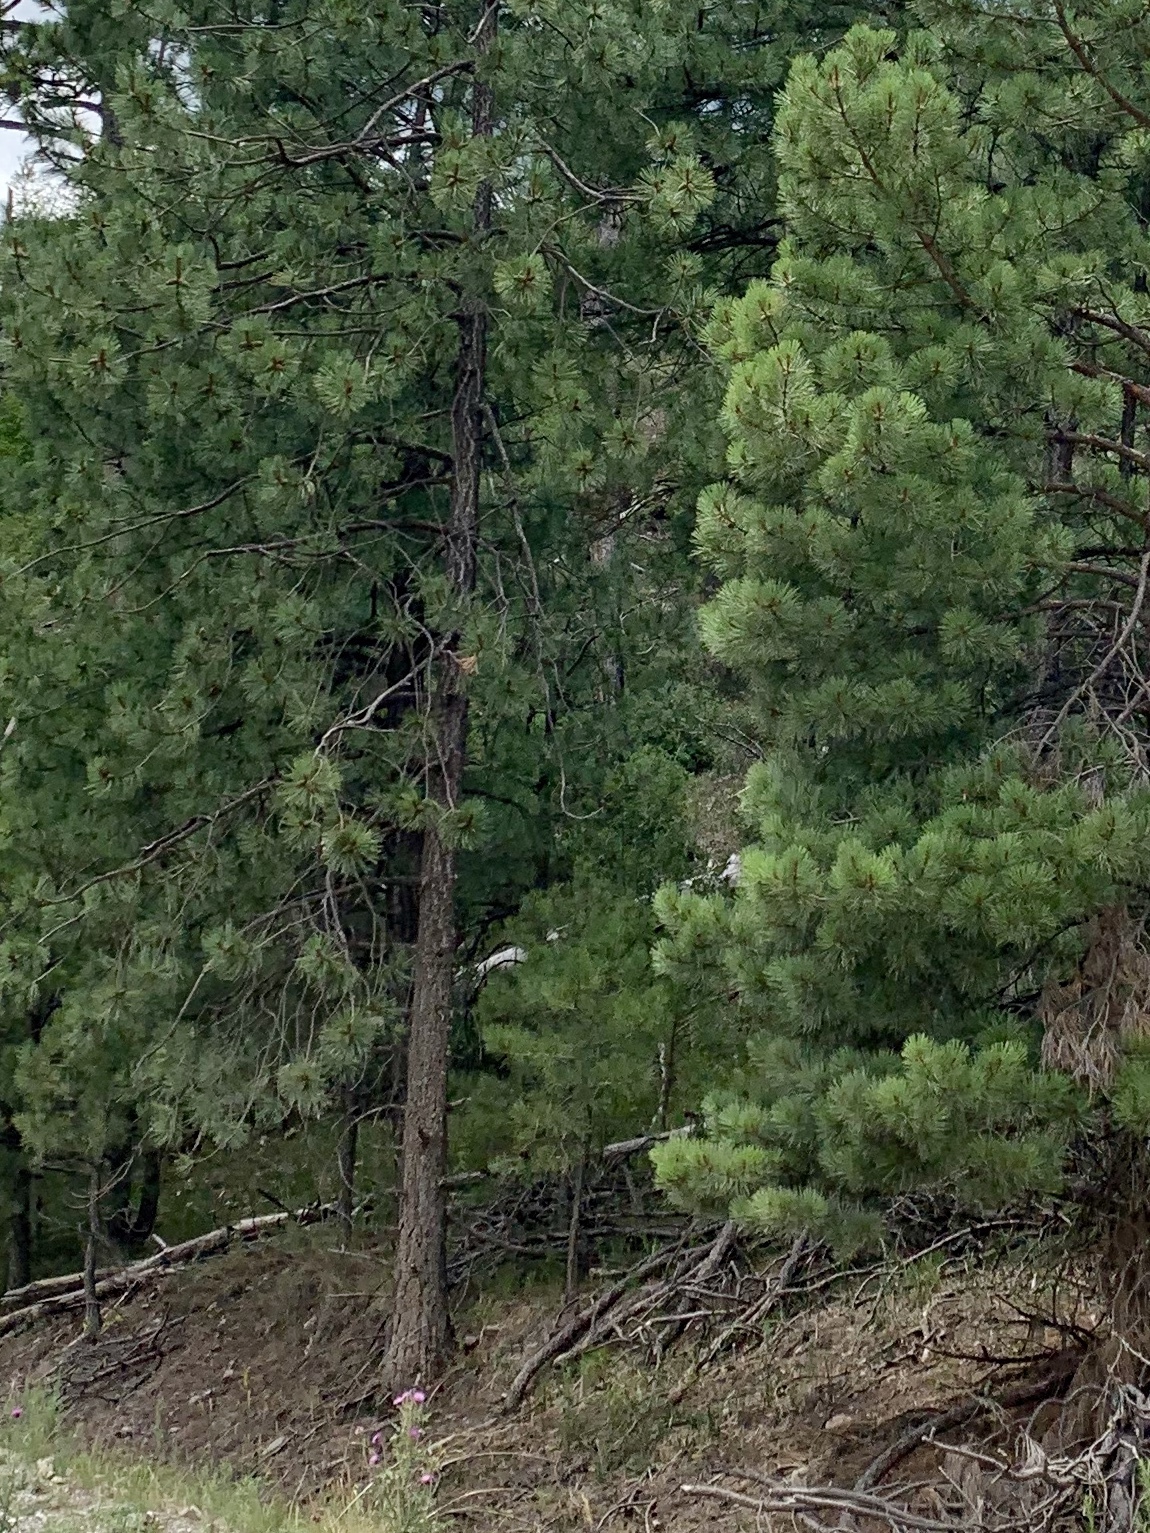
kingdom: Plantae
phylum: Tracheophyta
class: Pinopsida
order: Pinales
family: Pinaceae
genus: Pinus
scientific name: Pinus ponderosa
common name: Western yellow-pine
